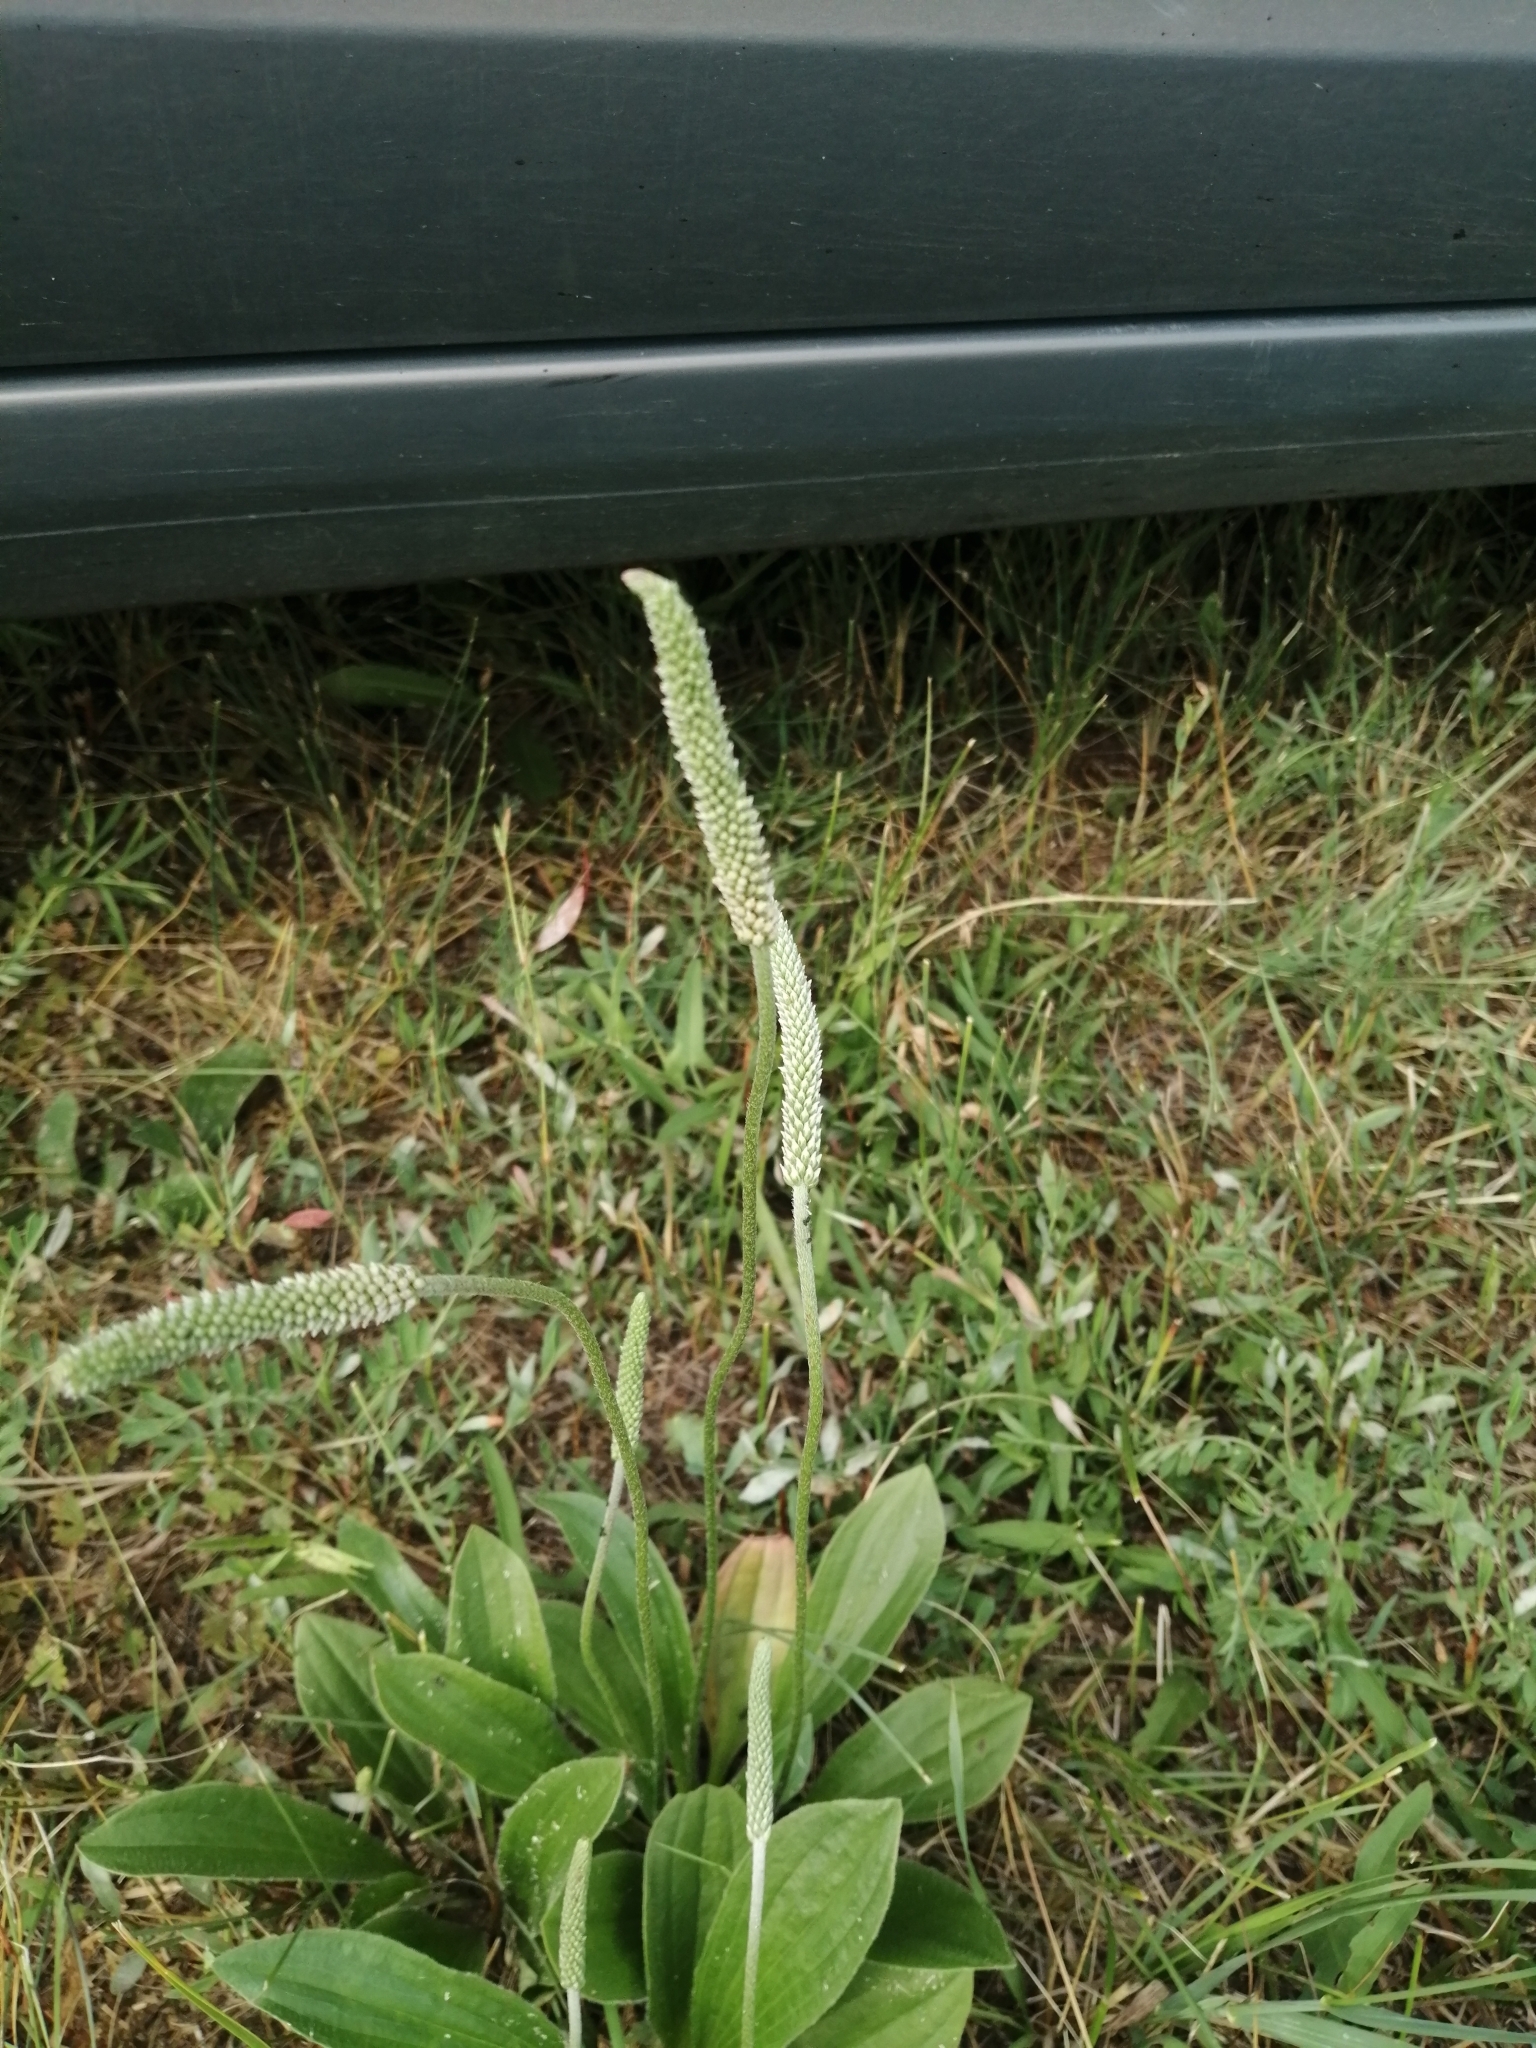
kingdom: Plantae
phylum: Tracheophyta
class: Magnoliopsida
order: Lamiales
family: Plantaginaceae
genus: Plantago
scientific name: Plantago urvillei
